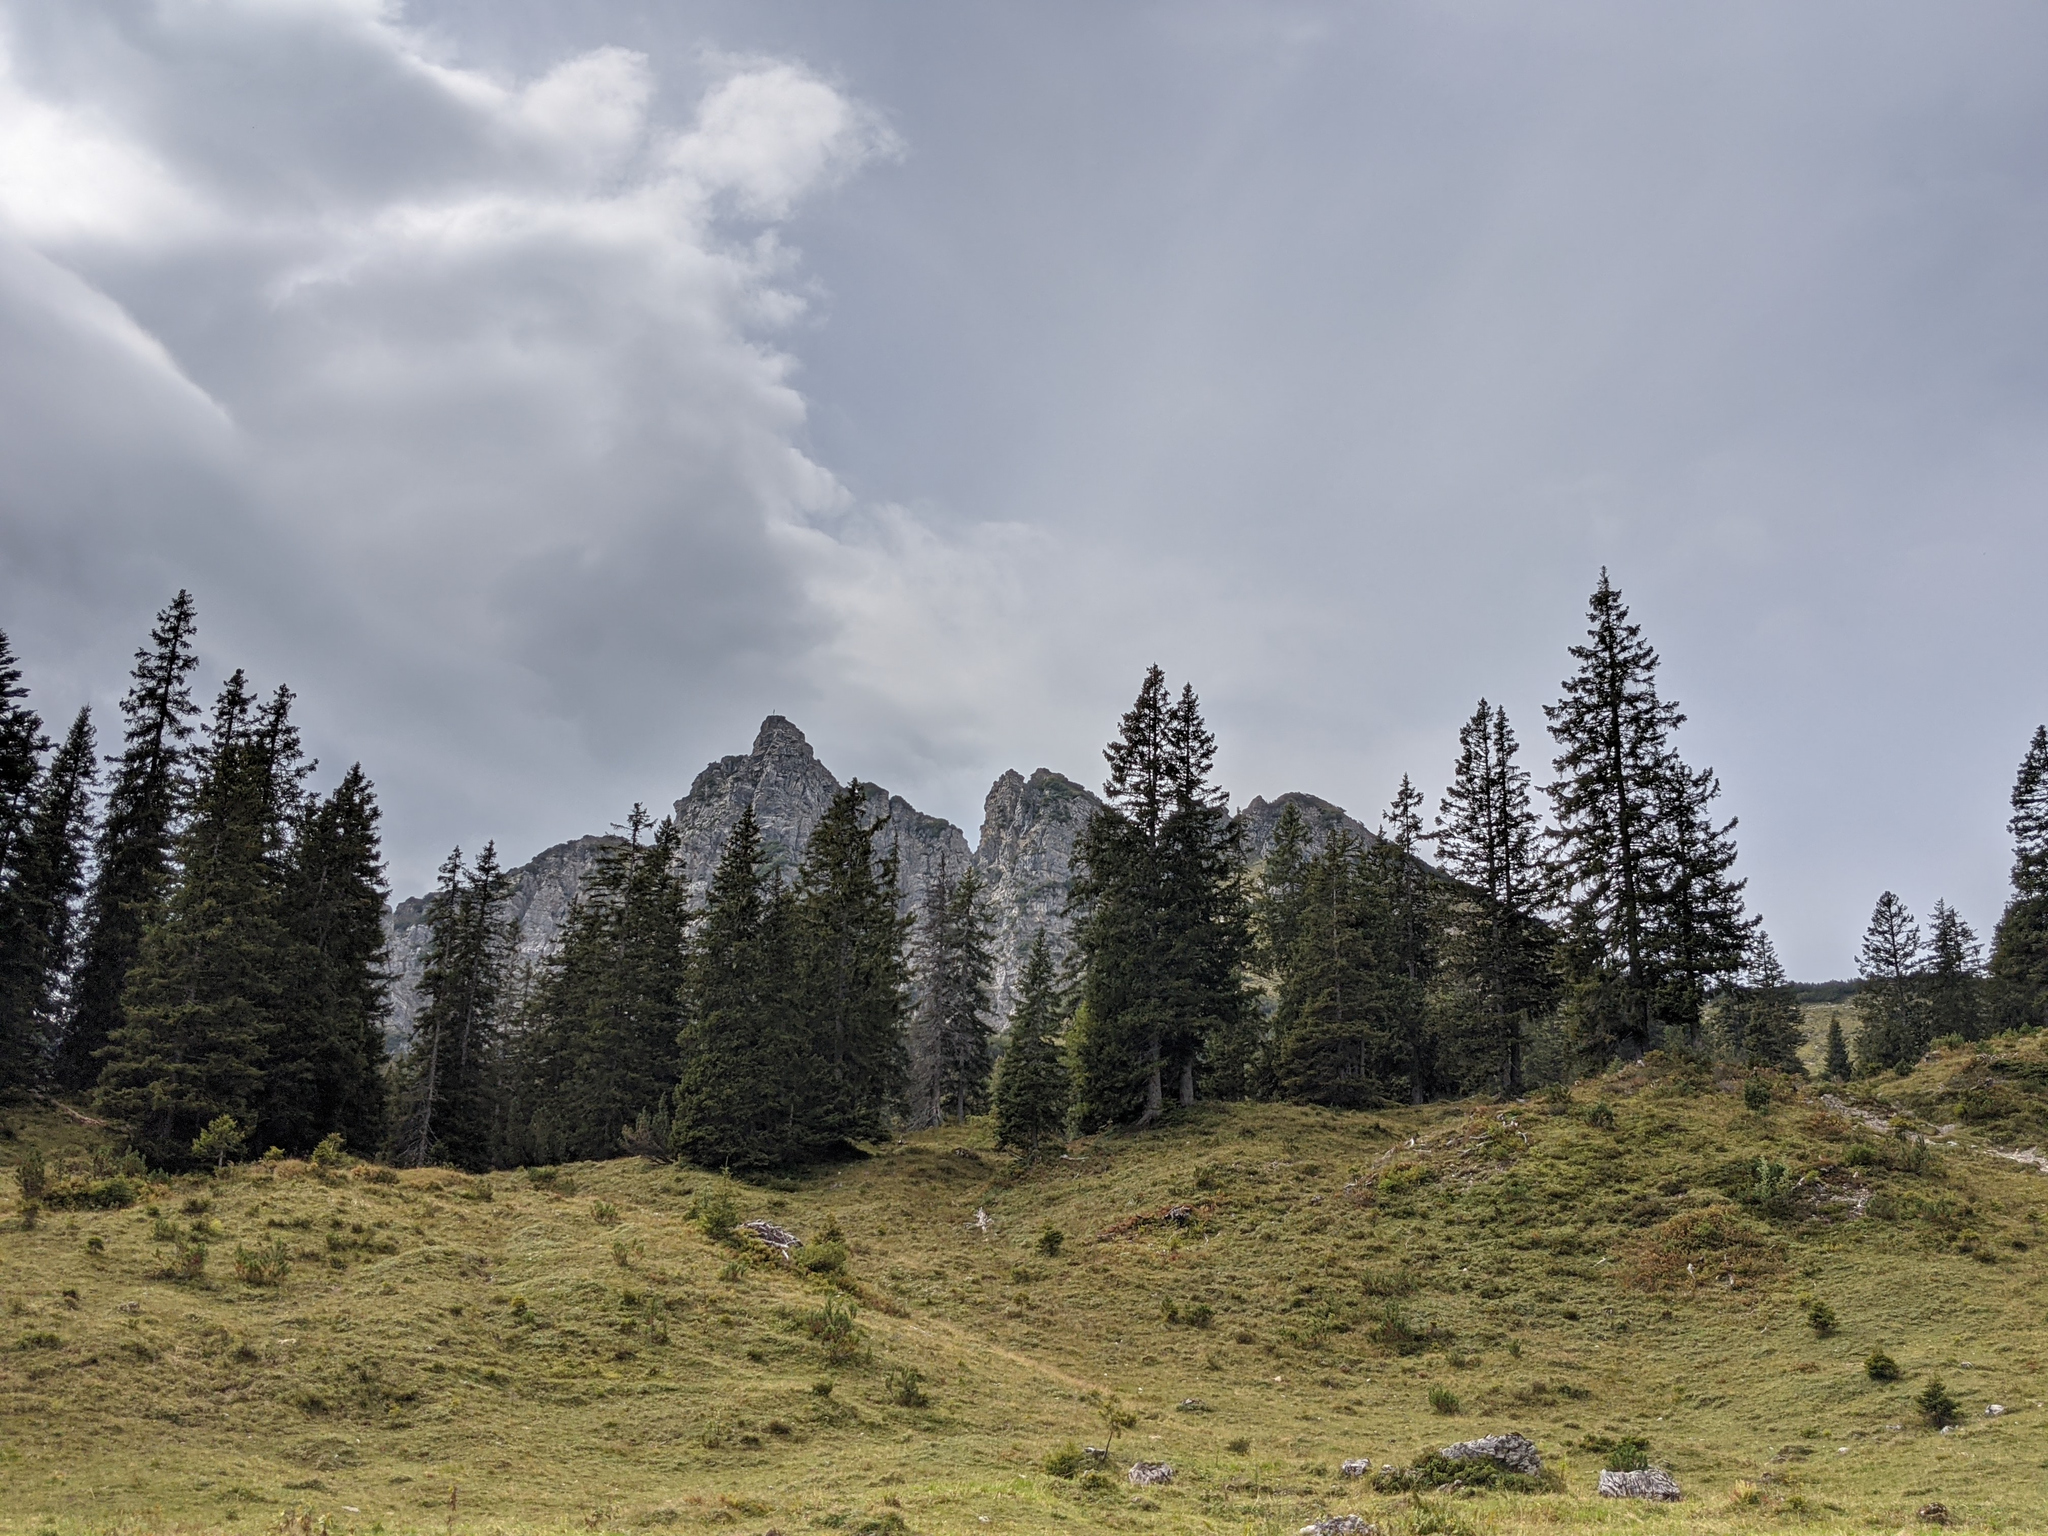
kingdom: Plantae
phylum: Tracheophyta
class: Pinopsida
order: Pinales
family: Pinaceae
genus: Picea
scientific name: Picea abies
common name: Norway spruce
